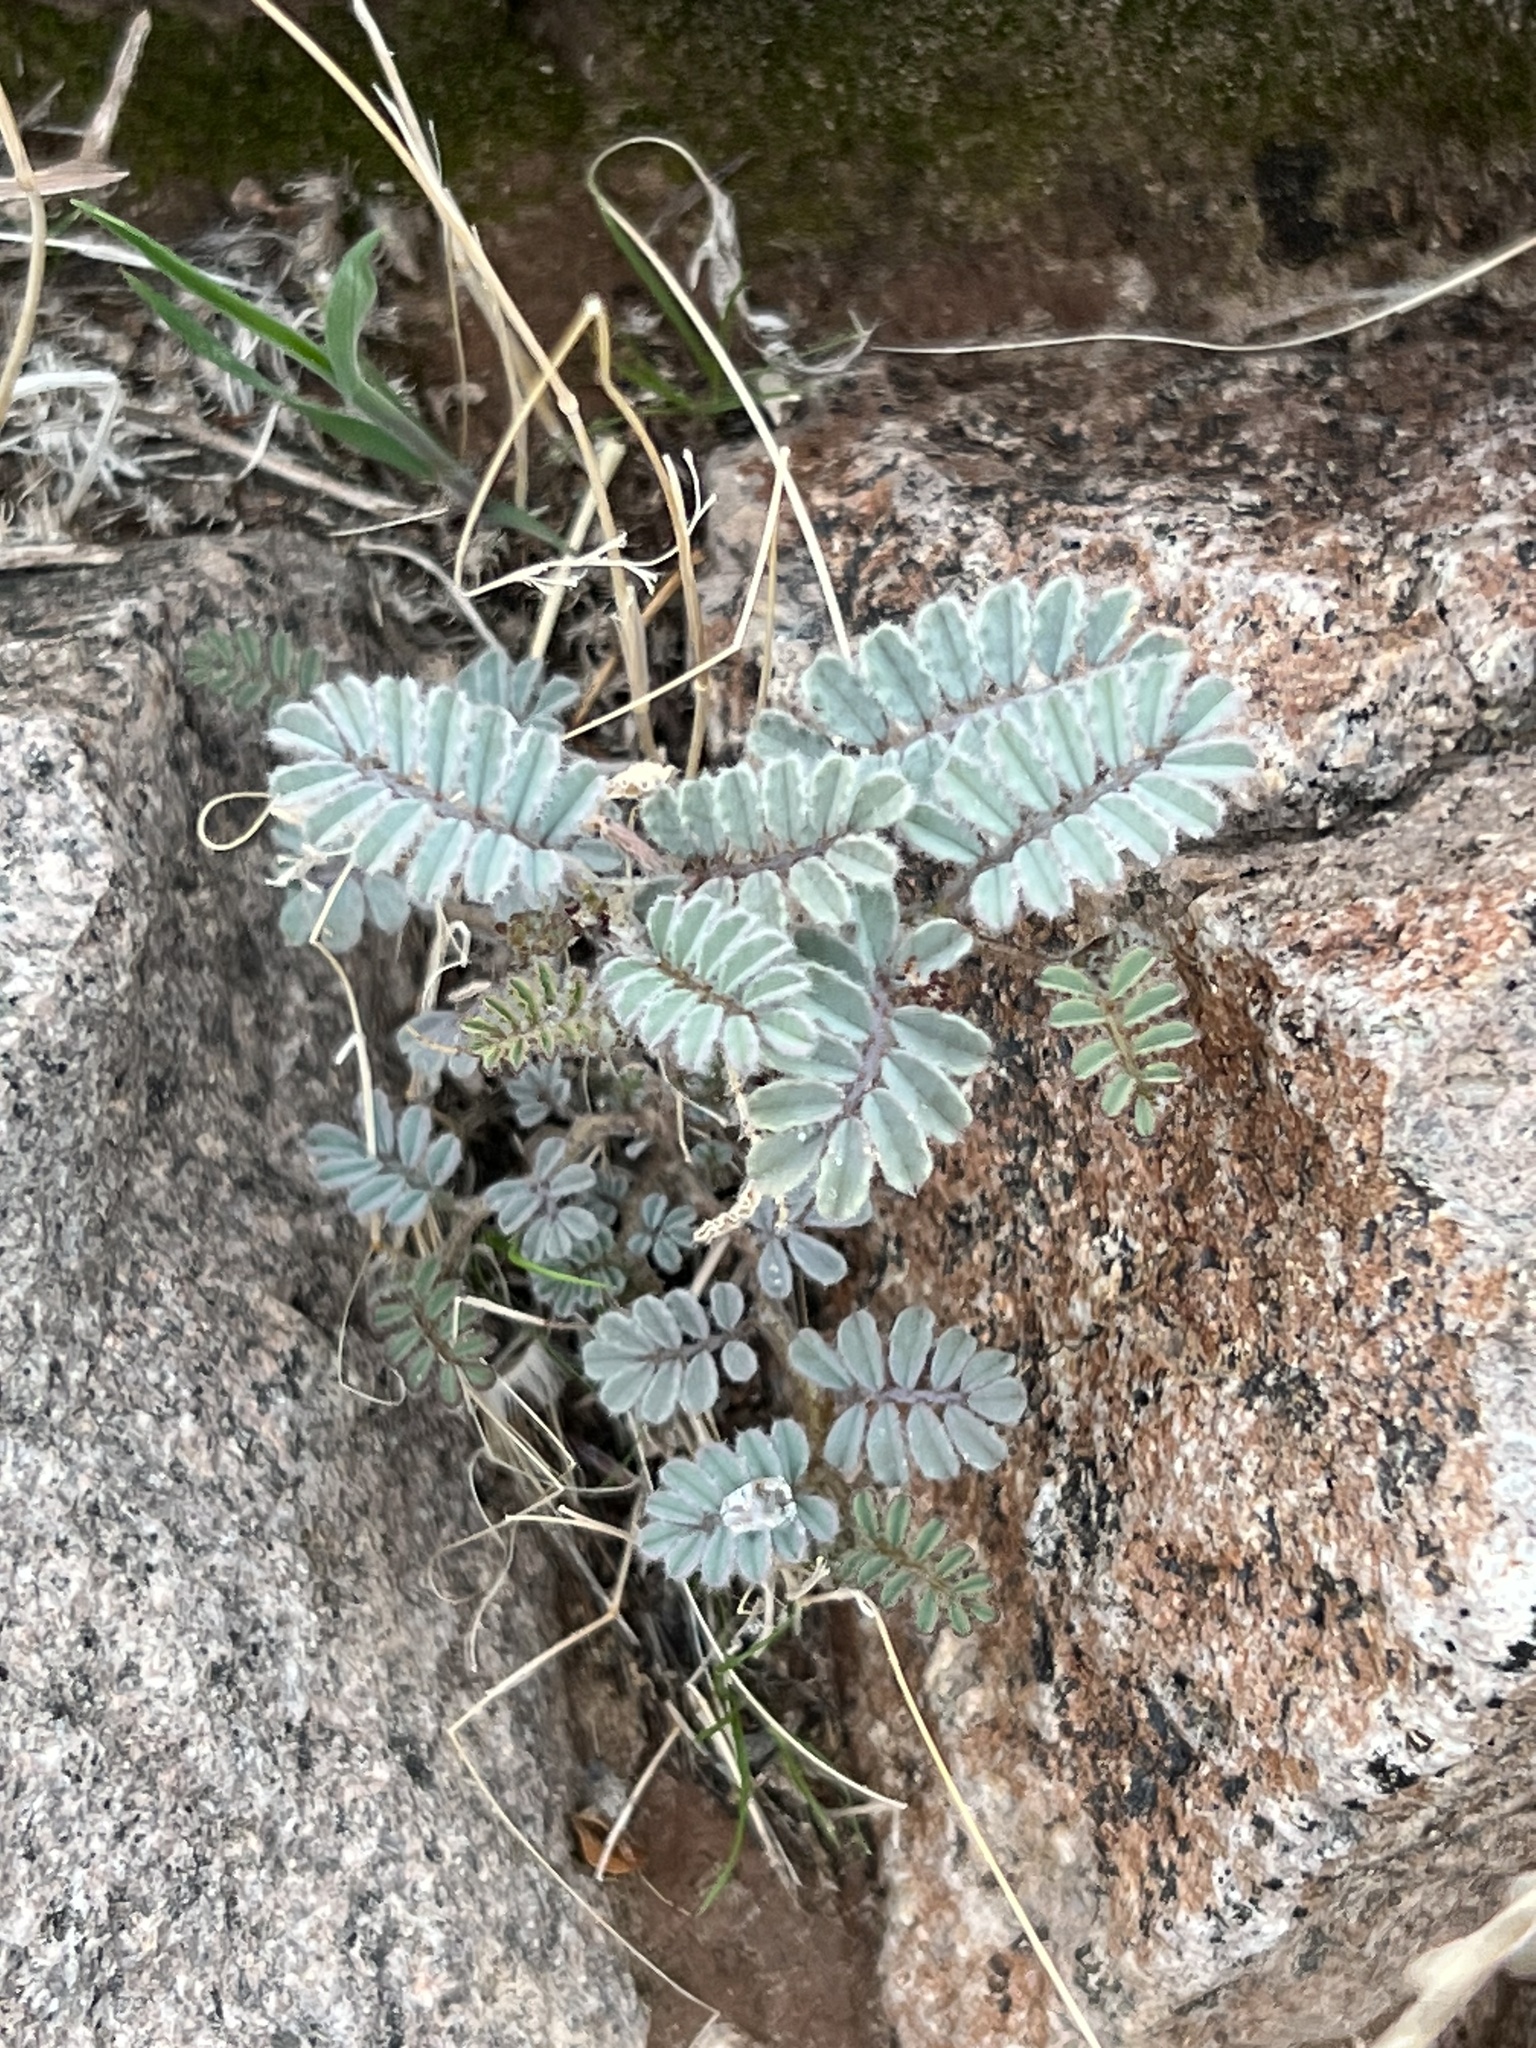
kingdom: Plantae
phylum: Tracheophyta
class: Magnoliopsida
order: Fabales
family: Fabaceae
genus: Dalea
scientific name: Dalea mollissima
